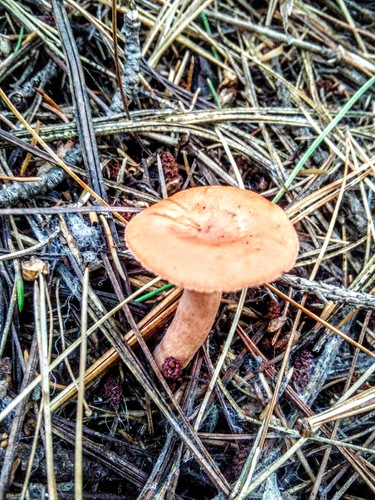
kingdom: Fungi
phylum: Basidiomycota
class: Agaricomycetes
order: Russulales
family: Russulaceae
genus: Lactarius
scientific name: Lactarius
